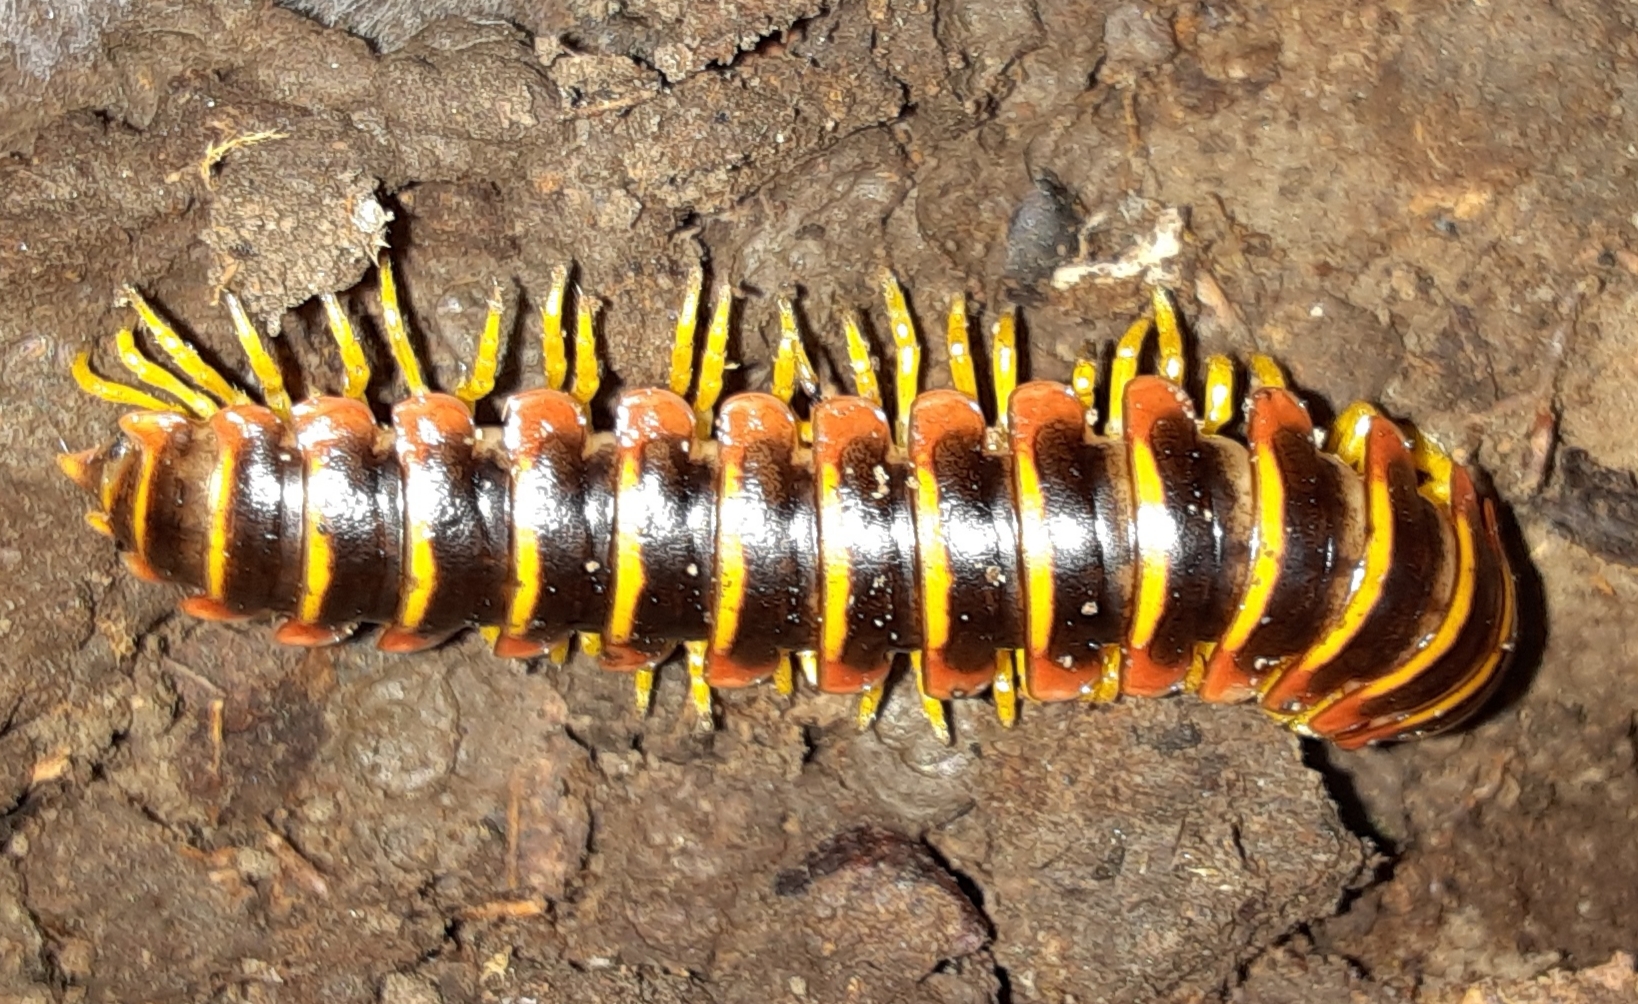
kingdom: Animalia
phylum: Arthropoda
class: Diplopoda
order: Polydesmida
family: Xystodesmidae
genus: Apheloria
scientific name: Apheloria virginiensis
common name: Black-and-gold flat millipede
